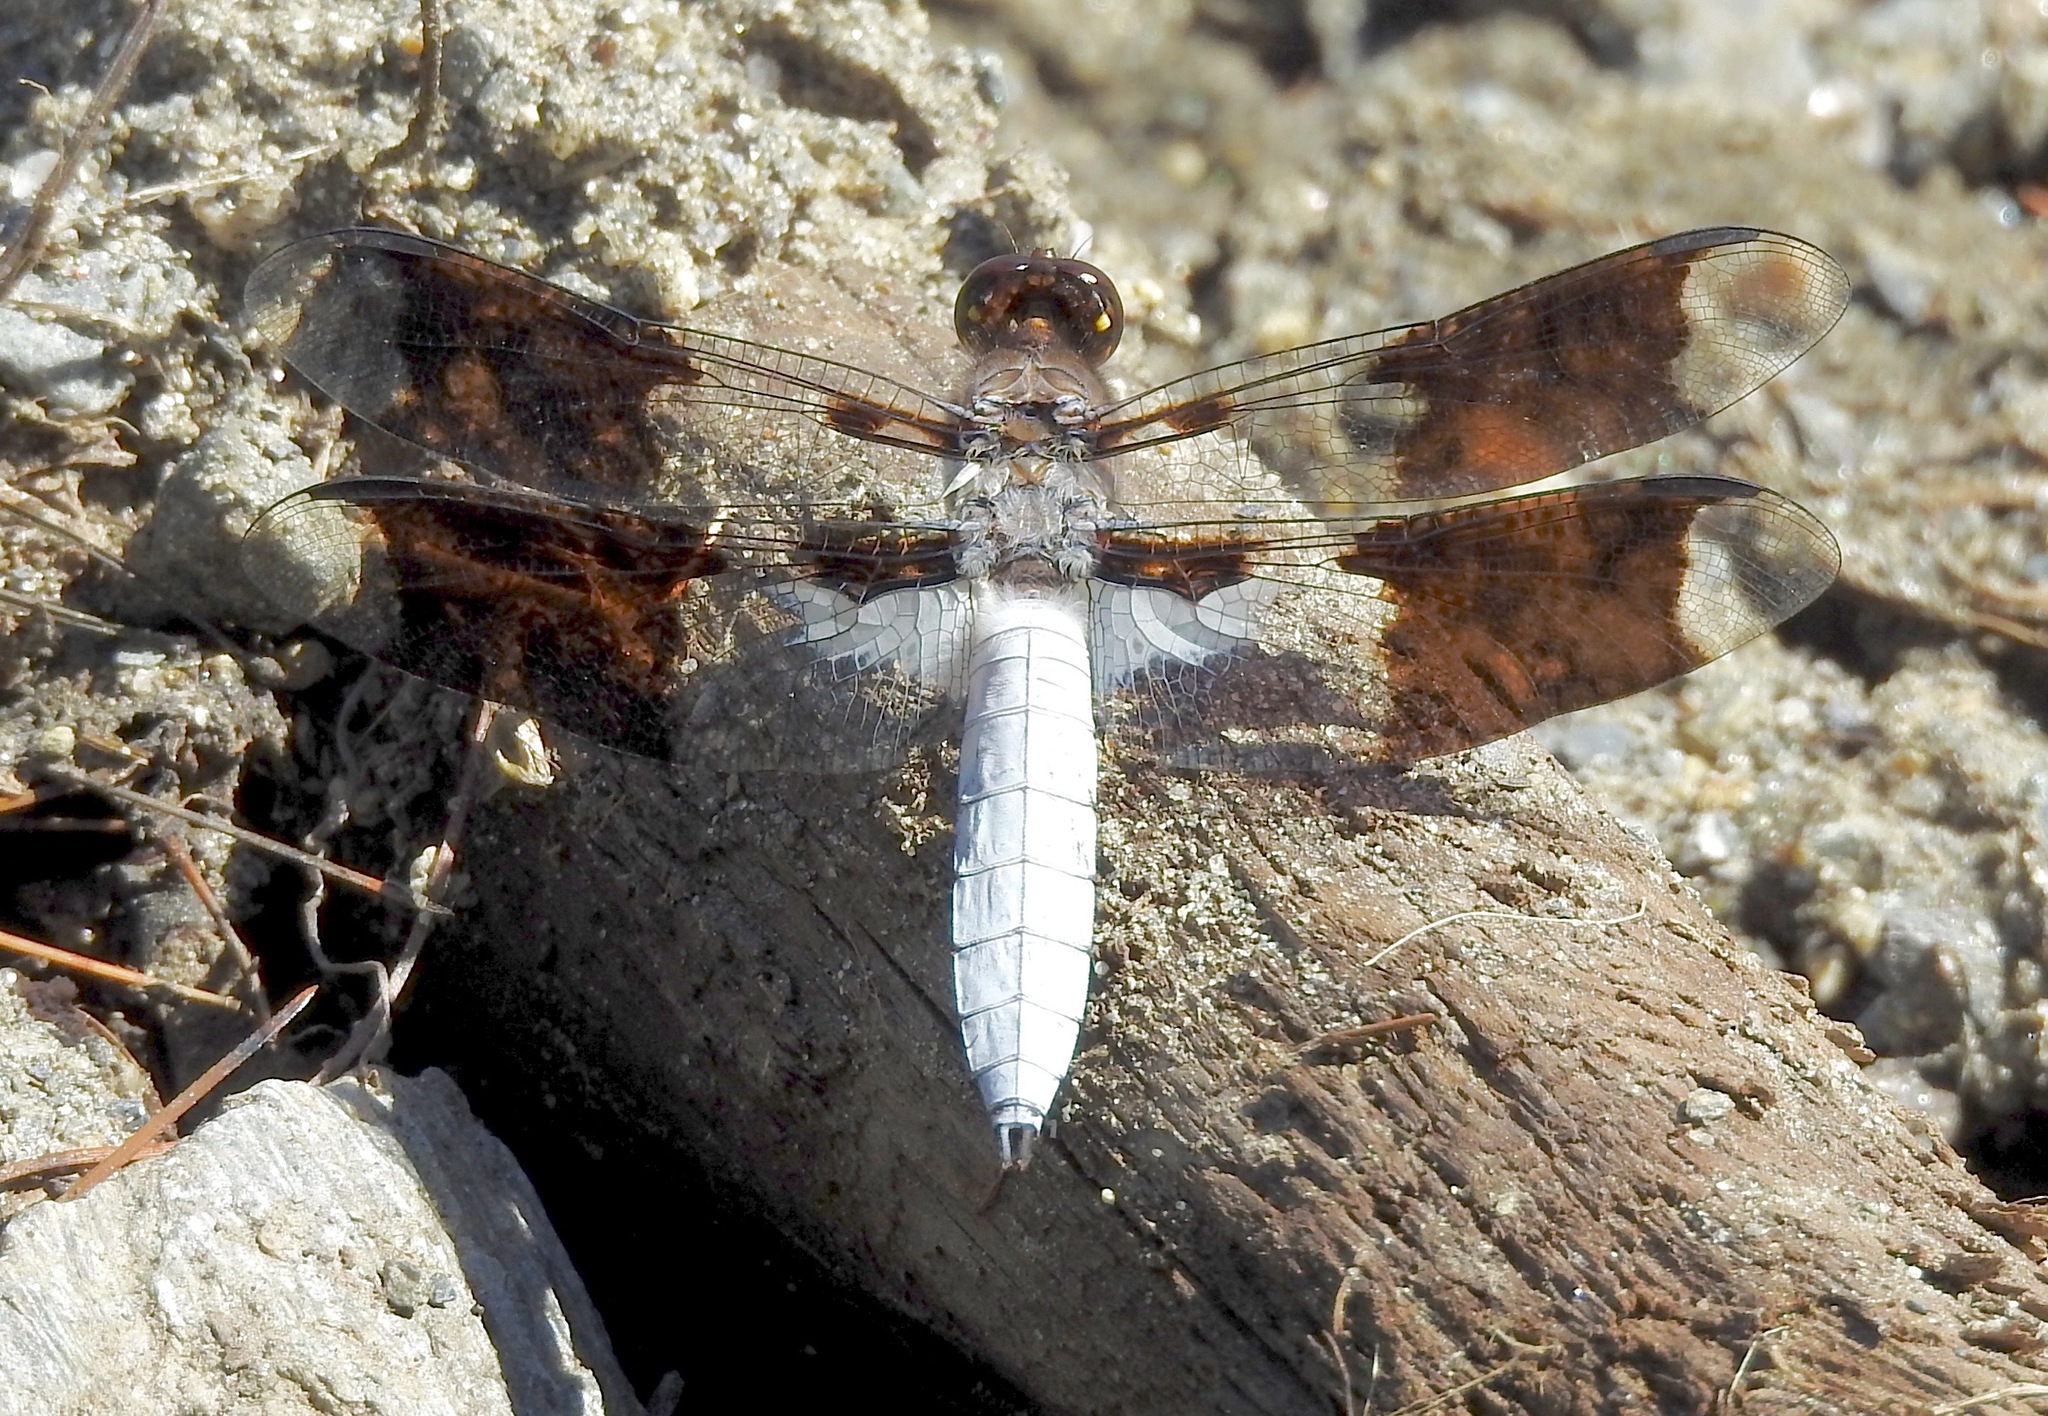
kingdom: Animalia
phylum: Arthropoda
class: Insecta
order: Odonata
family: Libellulidae
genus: Plathemis
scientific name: Plathemis lydia
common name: Common whitetail
